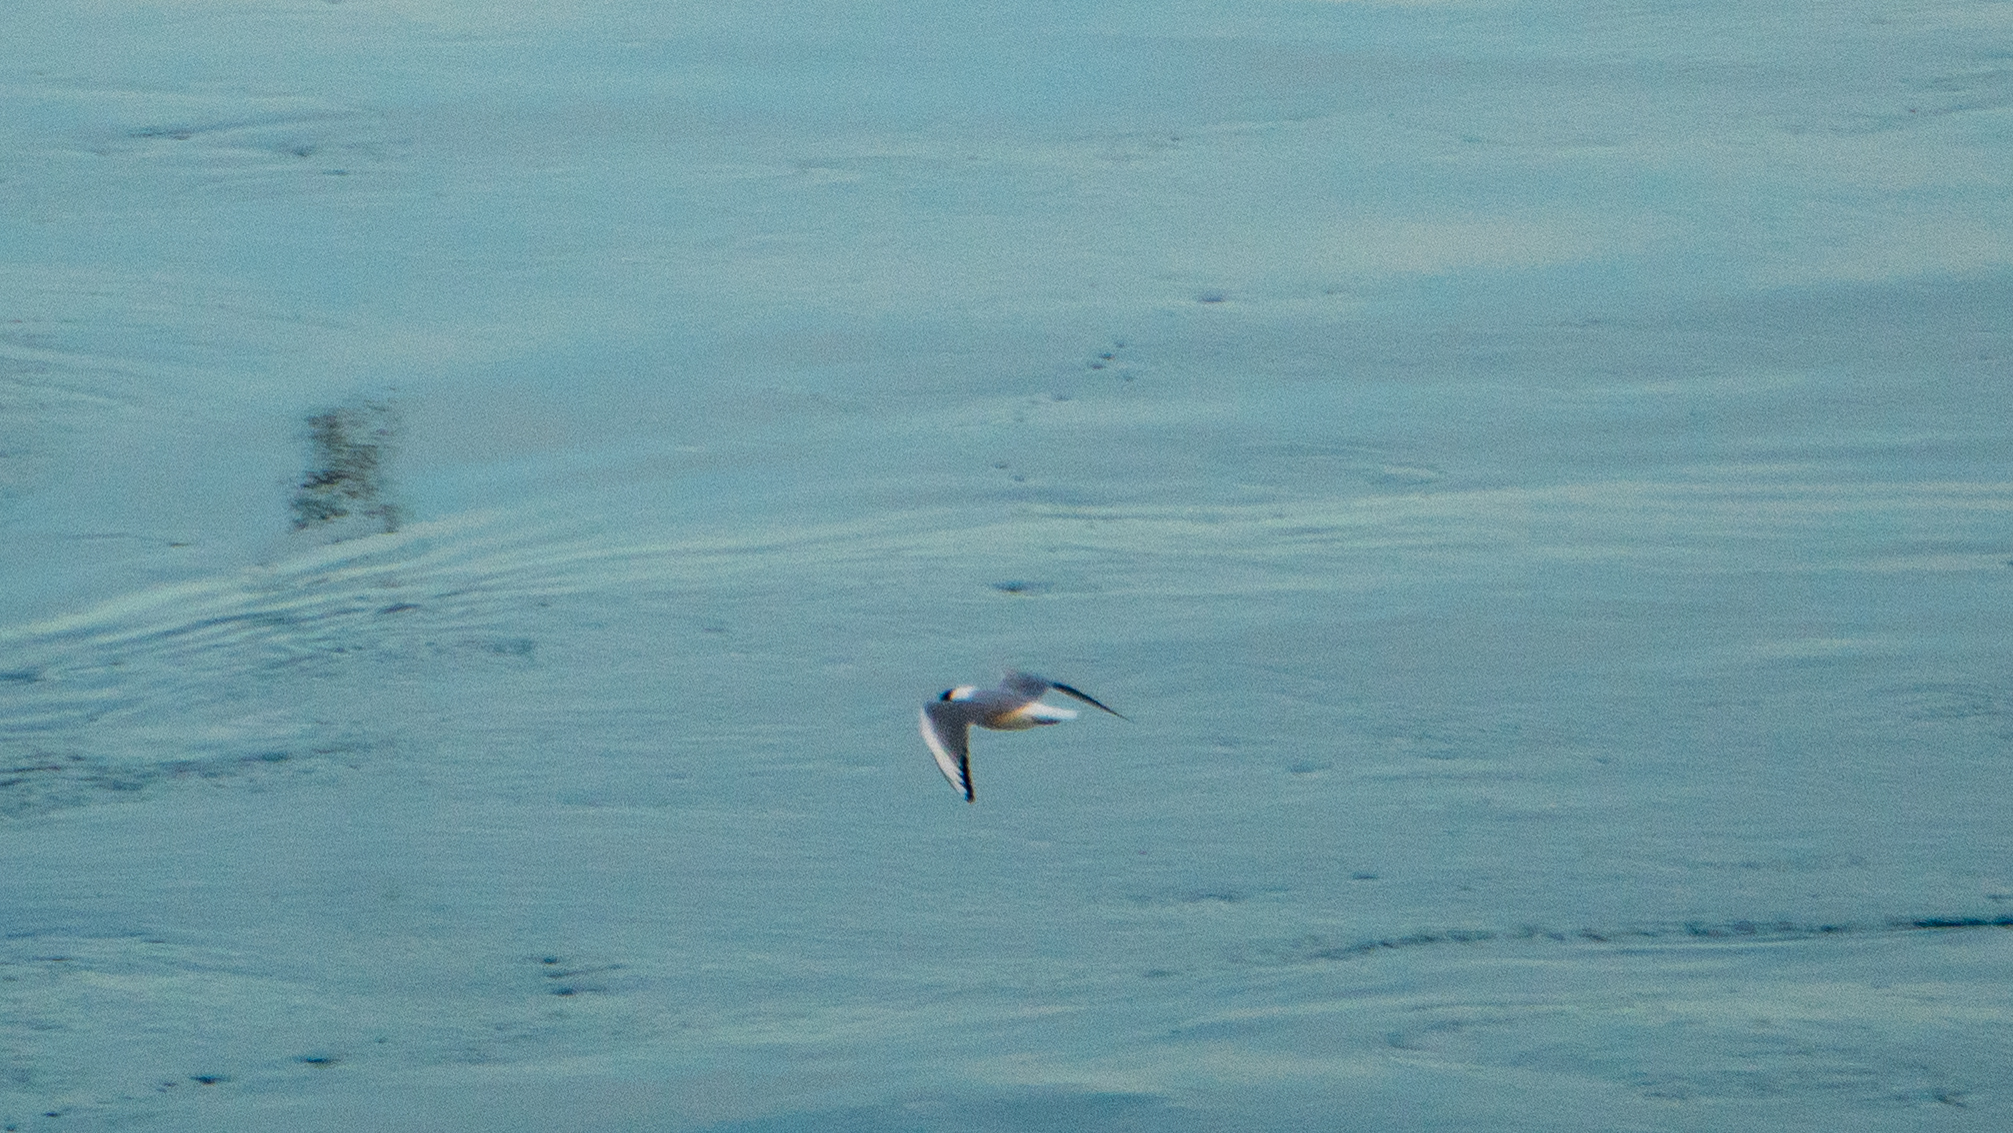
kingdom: Animalia
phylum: Chordata
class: Aves
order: Charadriiformes
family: Laridae
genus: Chroicocephalus
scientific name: Chroicocephalus philadelphia
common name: Bonaparte's gull
